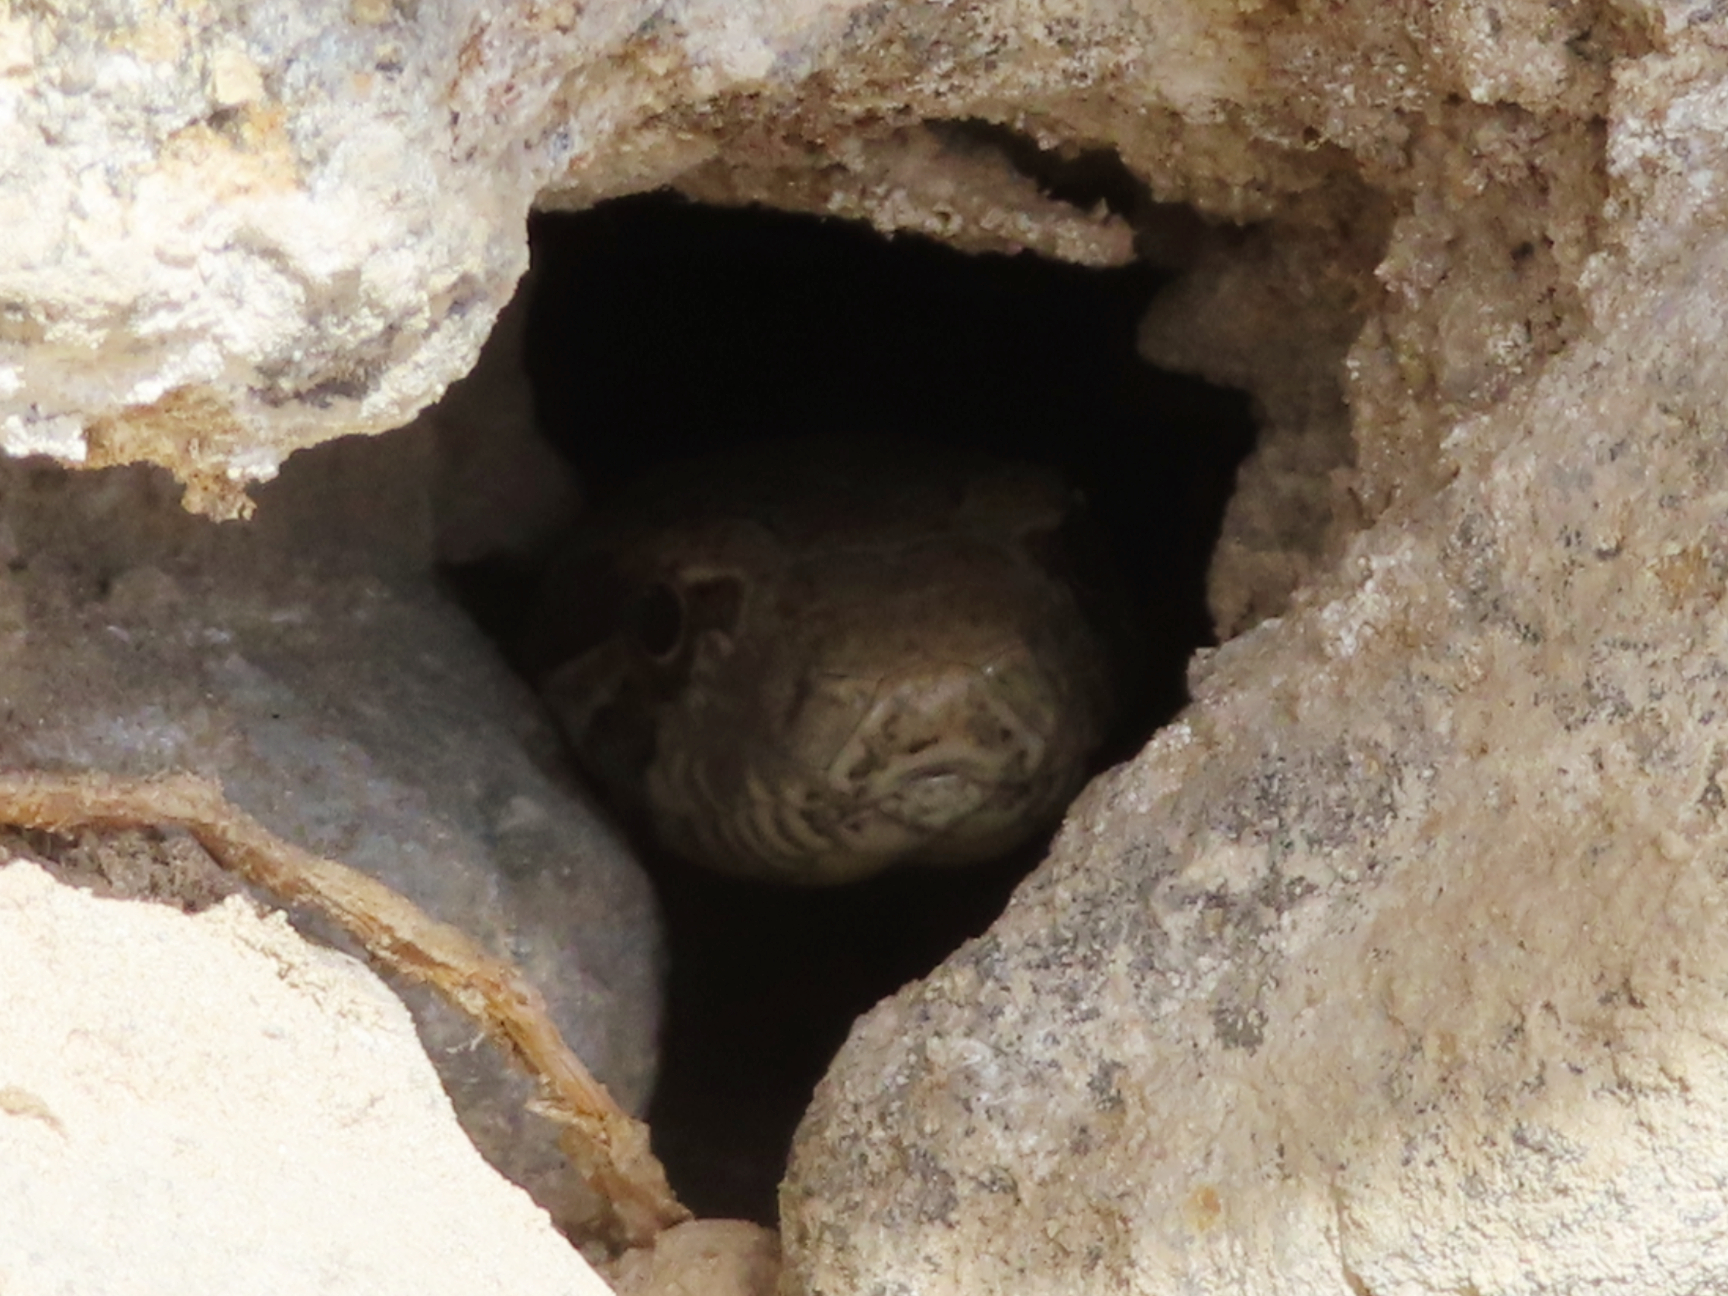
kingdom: Animalia
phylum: Chordata
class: Squamata
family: Colubridae
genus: Hemorrhois
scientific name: Hemorrhois ravergieri
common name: Spotted whip snake
